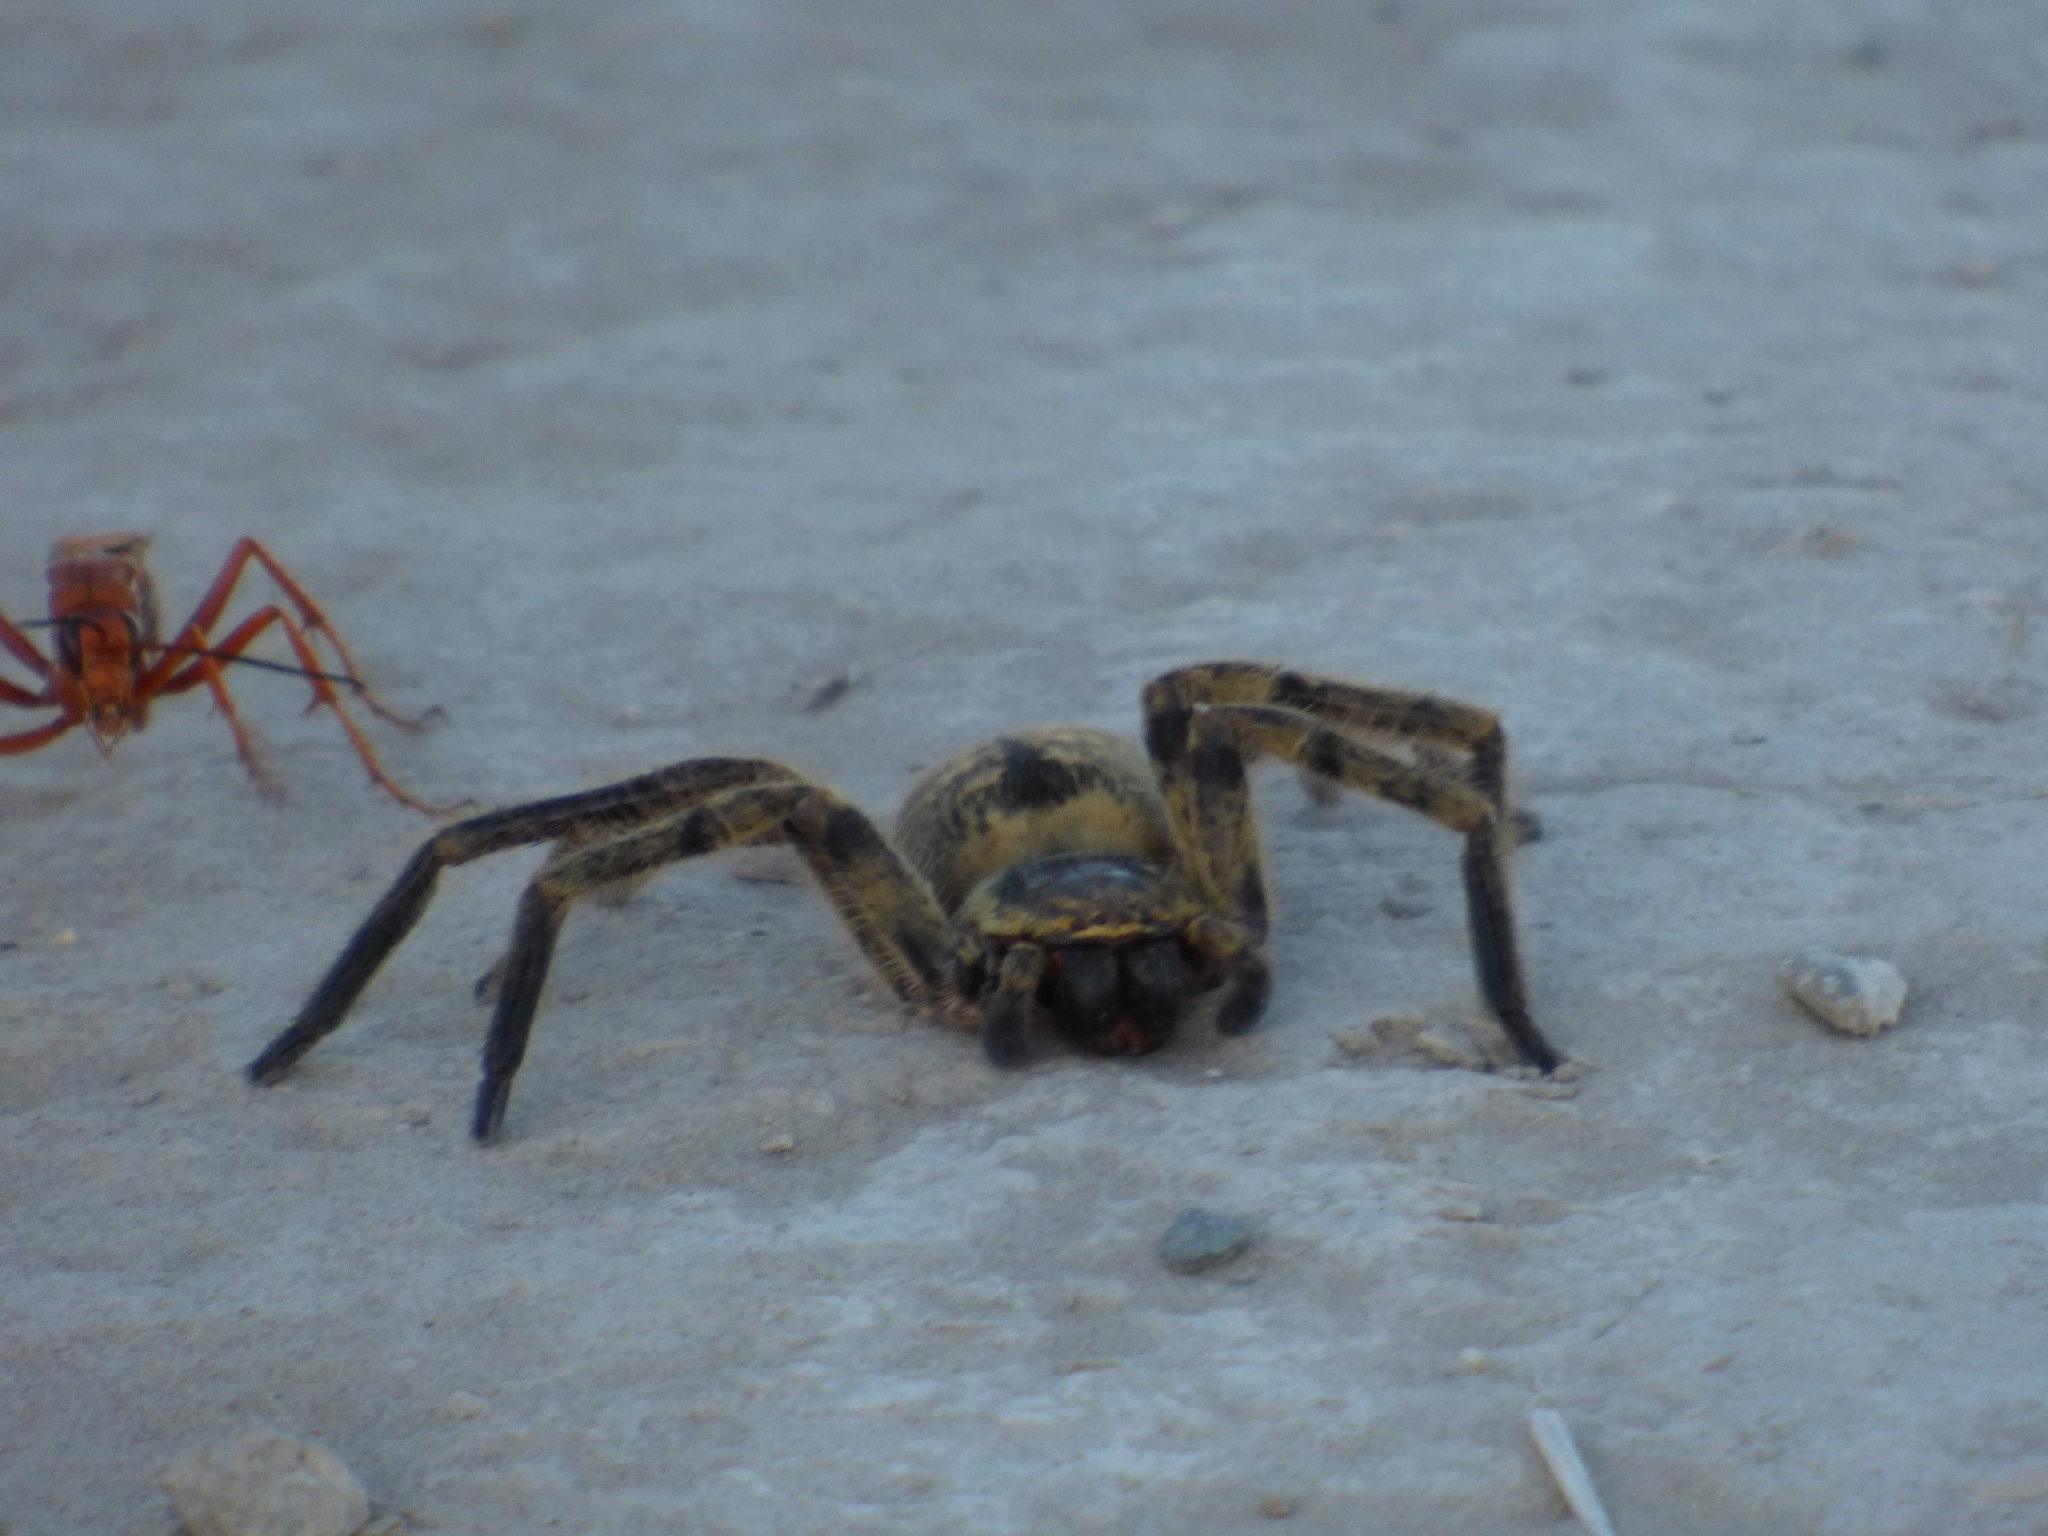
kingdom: Animalia
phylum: Arthropoda
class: Arachnida
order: Araneae
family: Sparassidae
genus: Polybetes
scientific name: Polybetes pythagoricus
